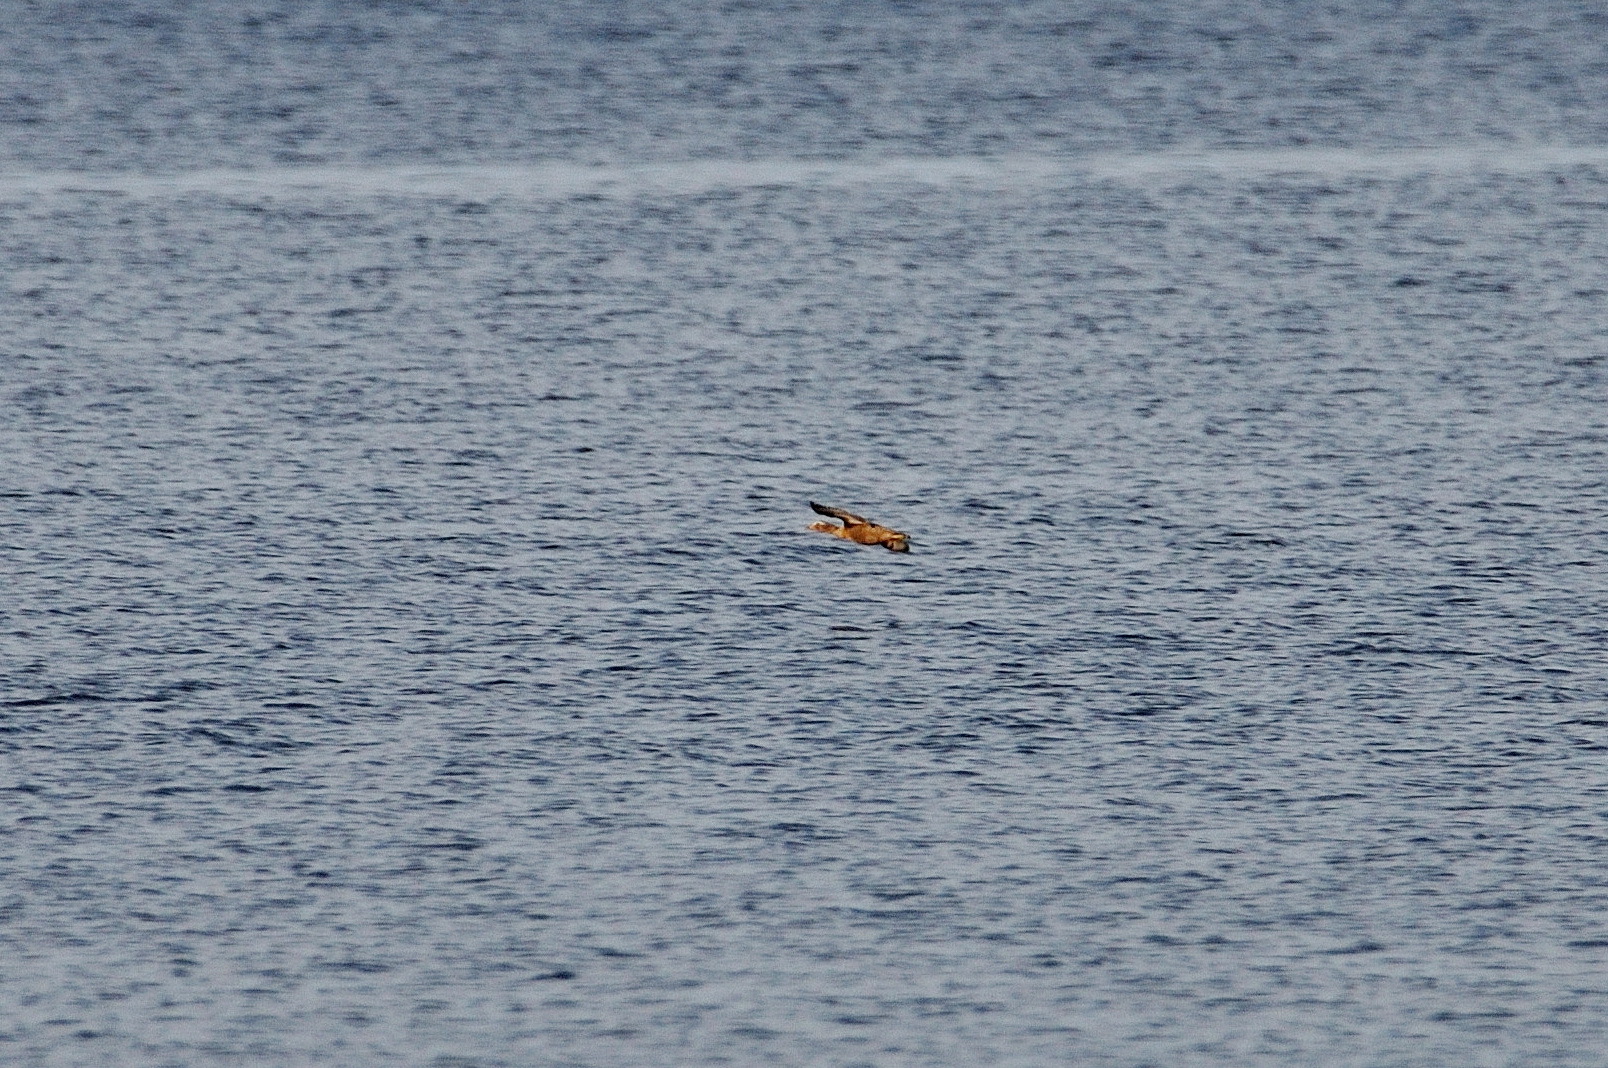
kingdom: Animalia
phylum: Chordata
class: Aves
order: Anseriformes
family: Anatidae
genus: Somateria
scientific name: Somateria mollissima
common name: Common eider
